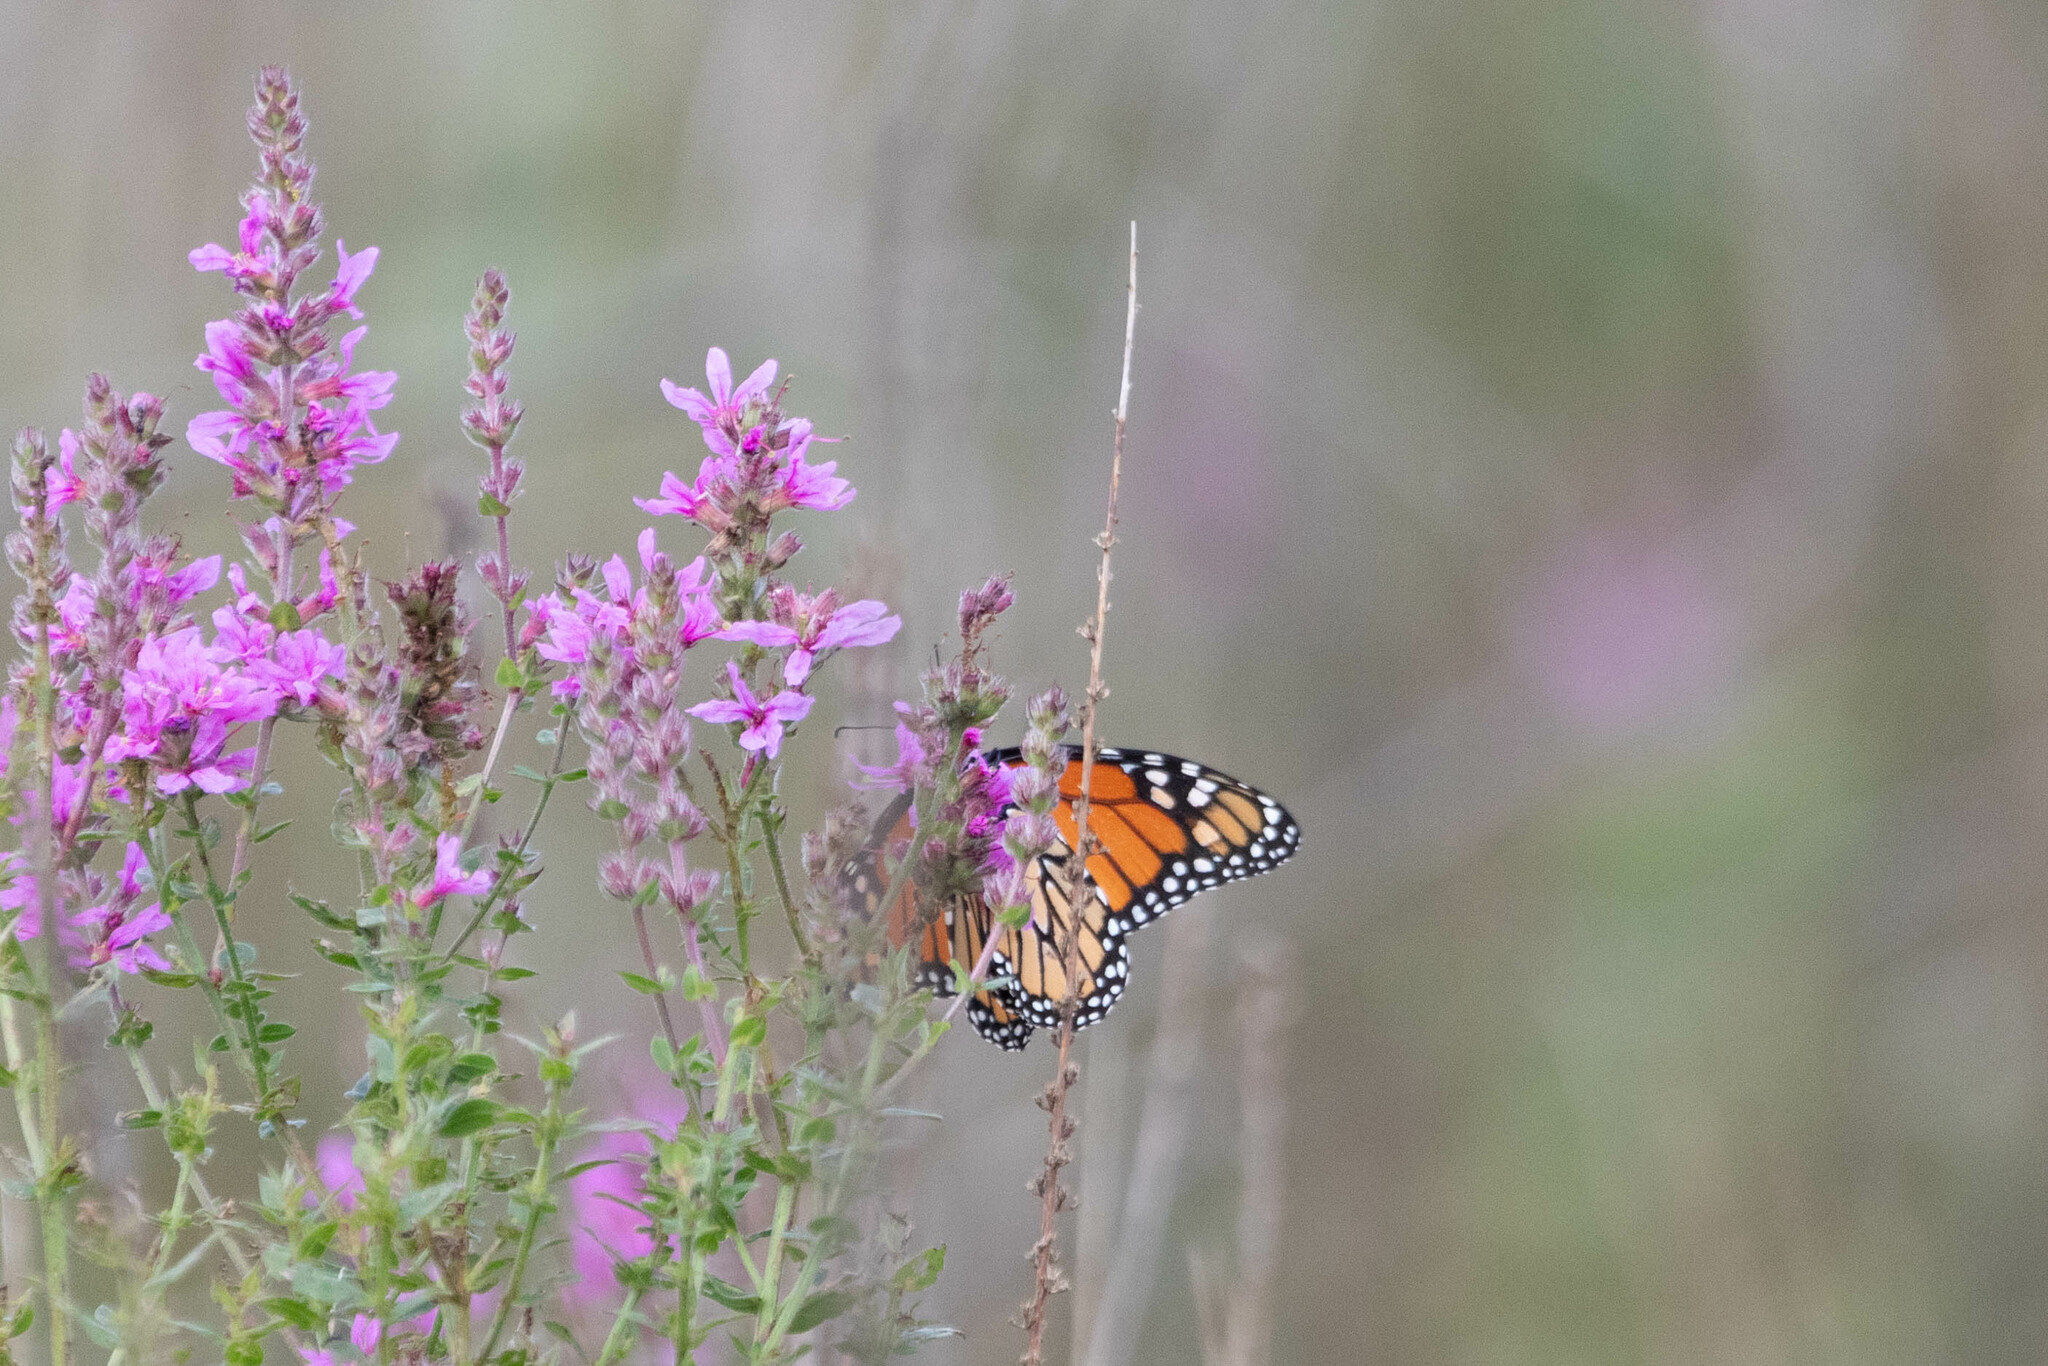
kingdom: Animalia
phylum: Arthropoda
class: Insecta
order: Lepidoptera
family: Nymphalidae
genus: Danaus
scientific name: Danaus plexippus
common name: Monarch
